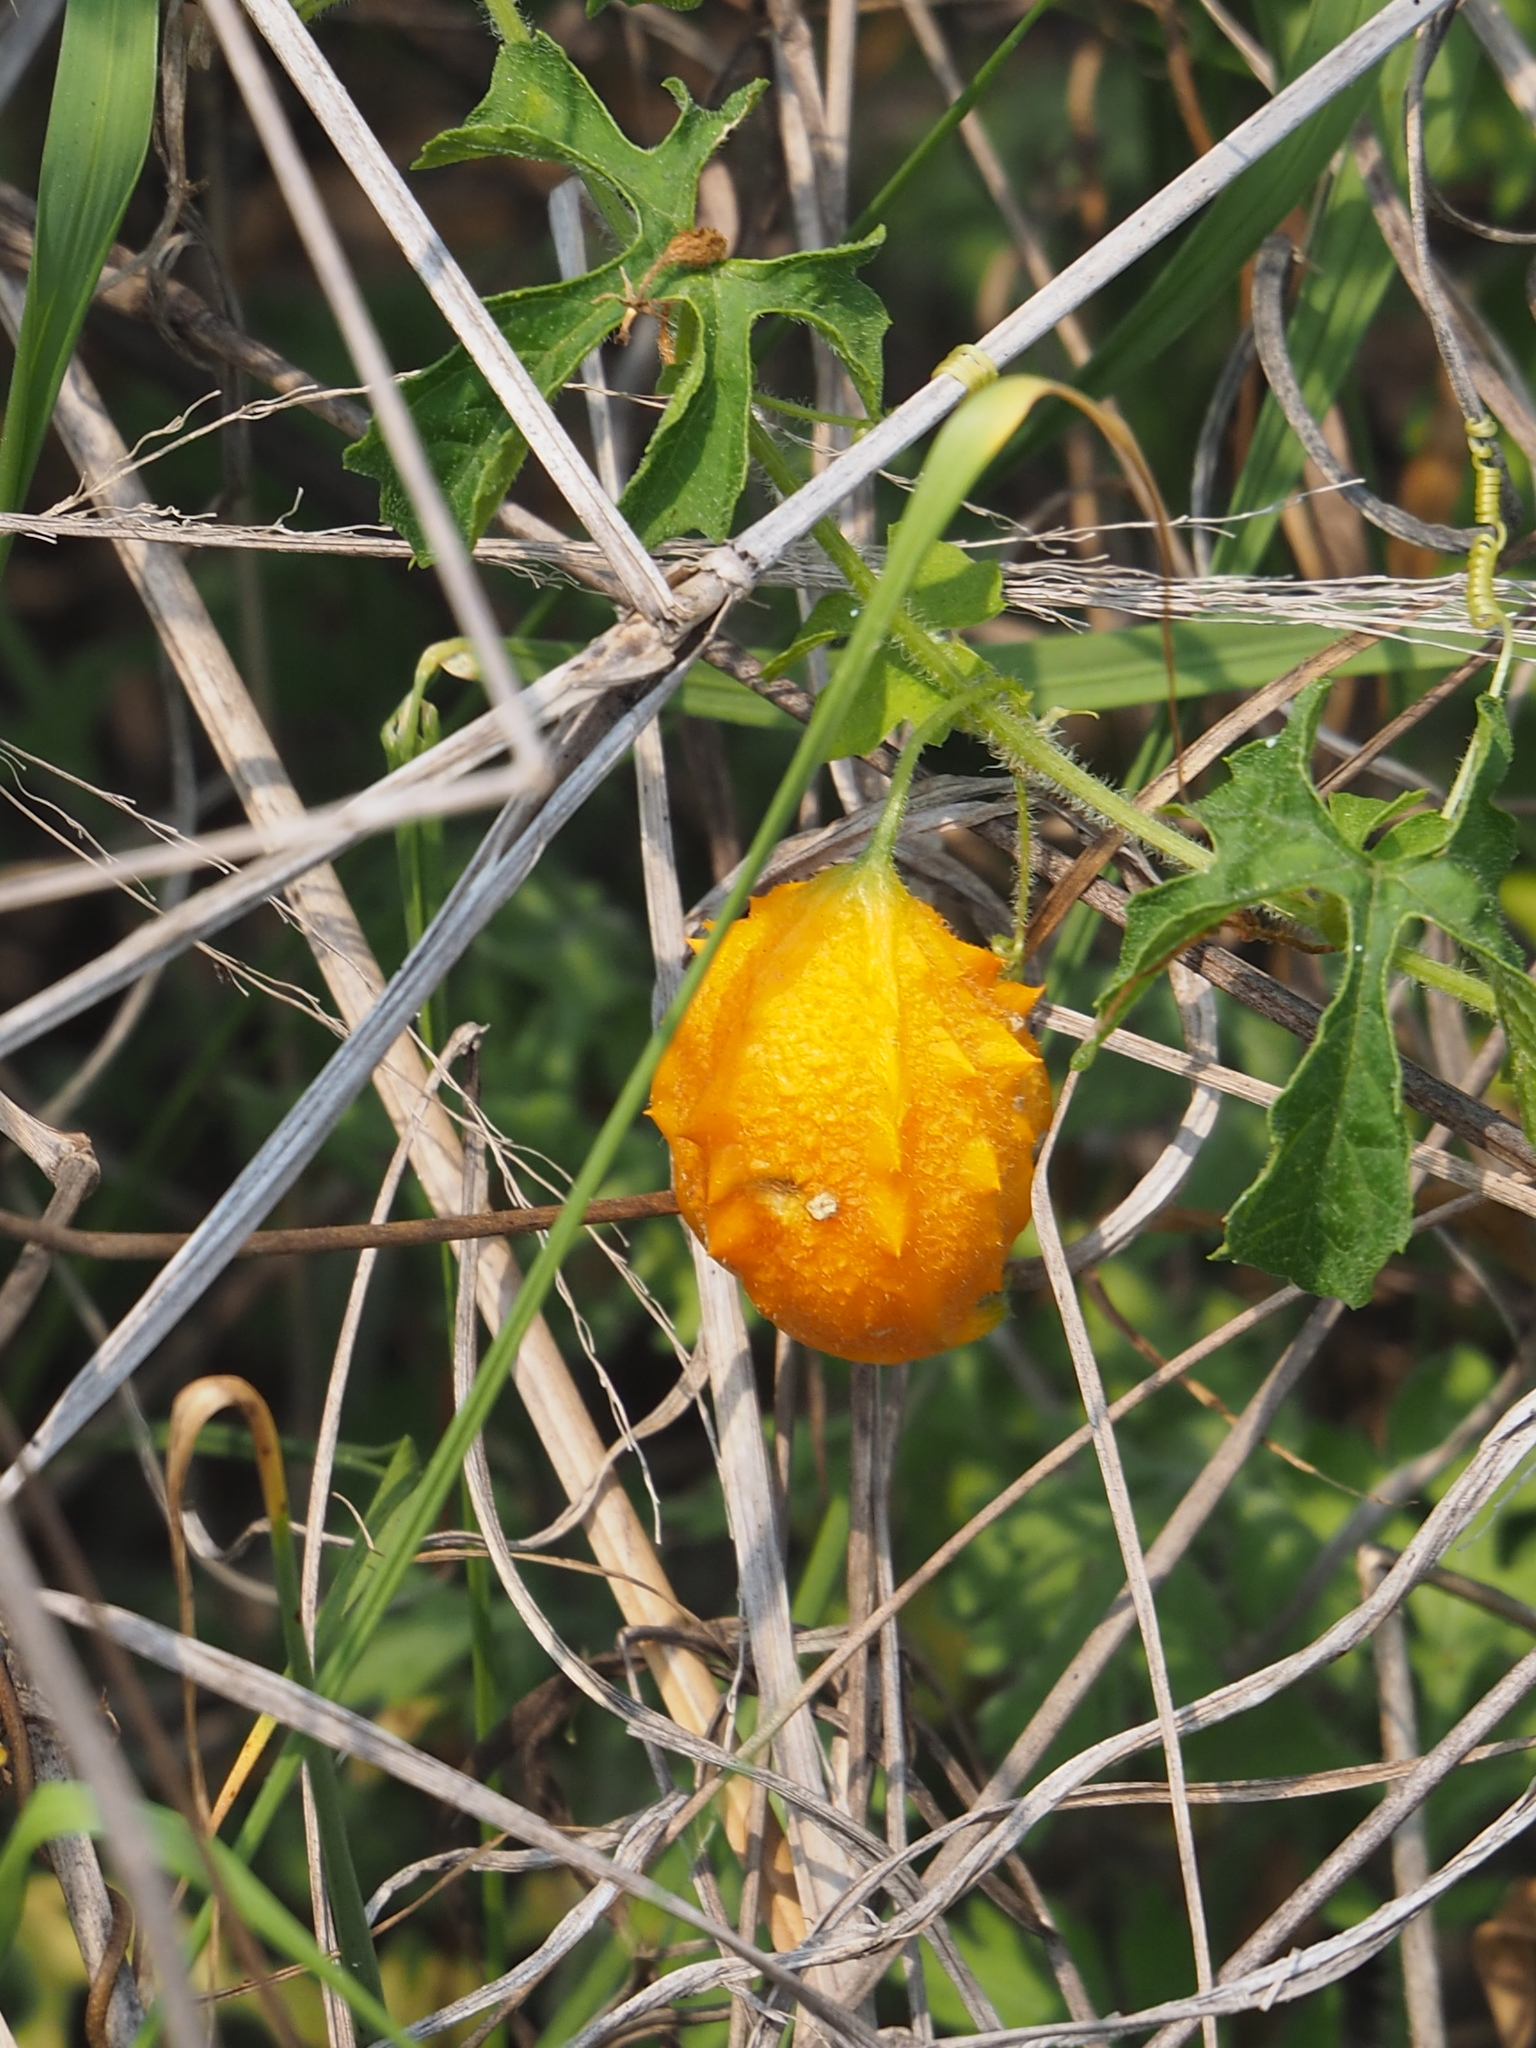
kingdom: Plantae
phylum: Tracheophyta
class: Magnoliopsida
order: Cucurbitales
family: Cucurbitaceae
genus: Momordica
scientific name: Momordica charantia
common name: Balsampear
